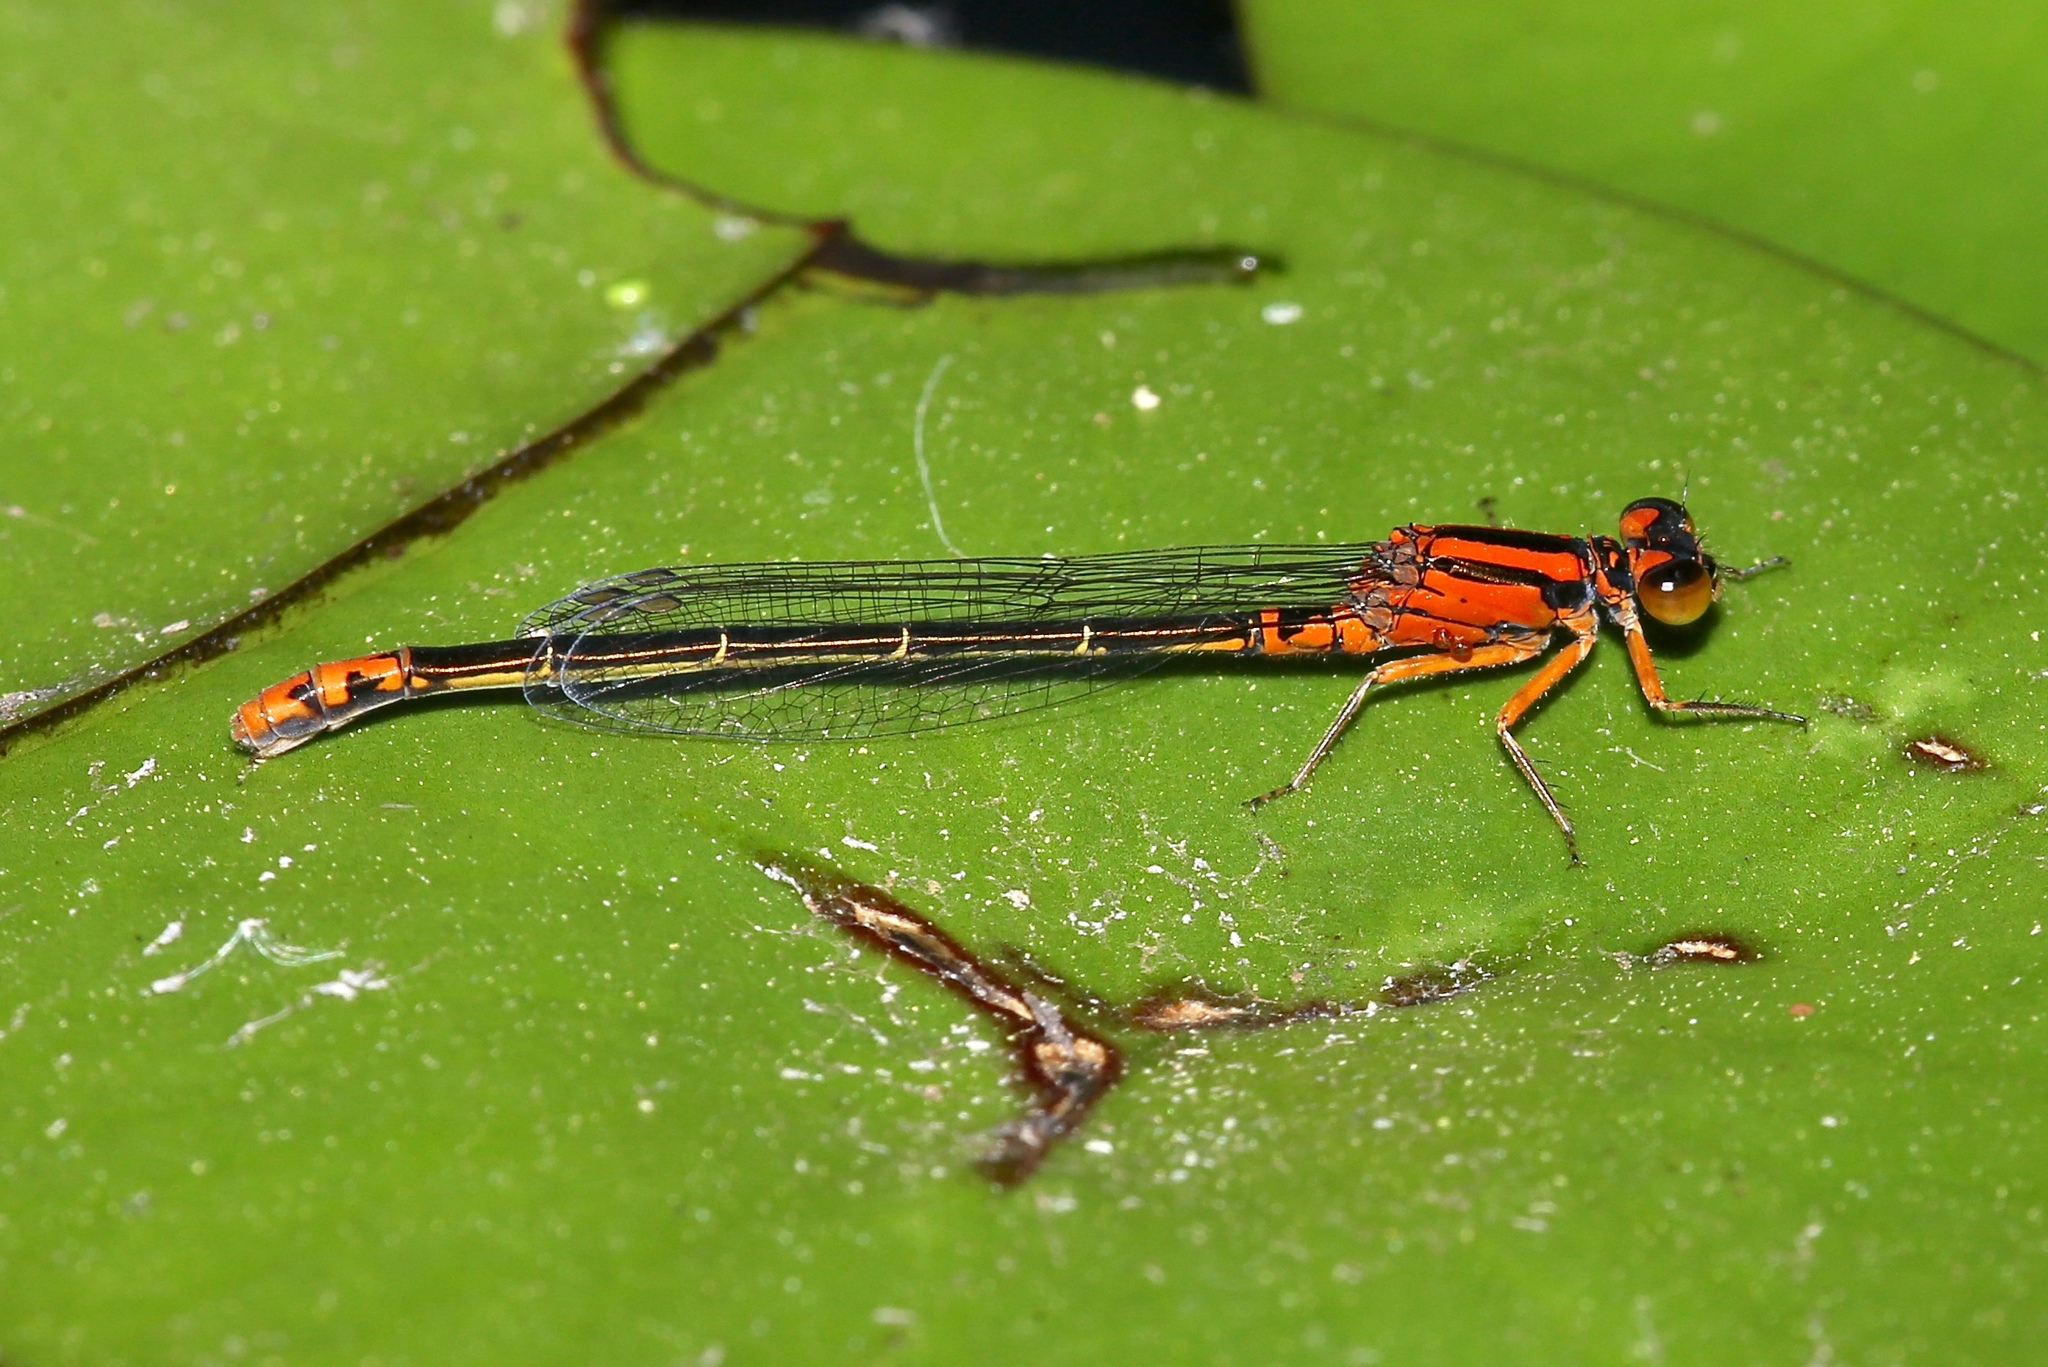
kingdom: Animalia
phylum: Arthropoda
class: Insecta
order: Odonata
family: Coenagrionidae
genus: Ischnura
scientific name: Ischnura kellicotti
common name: Lilypad forktail
